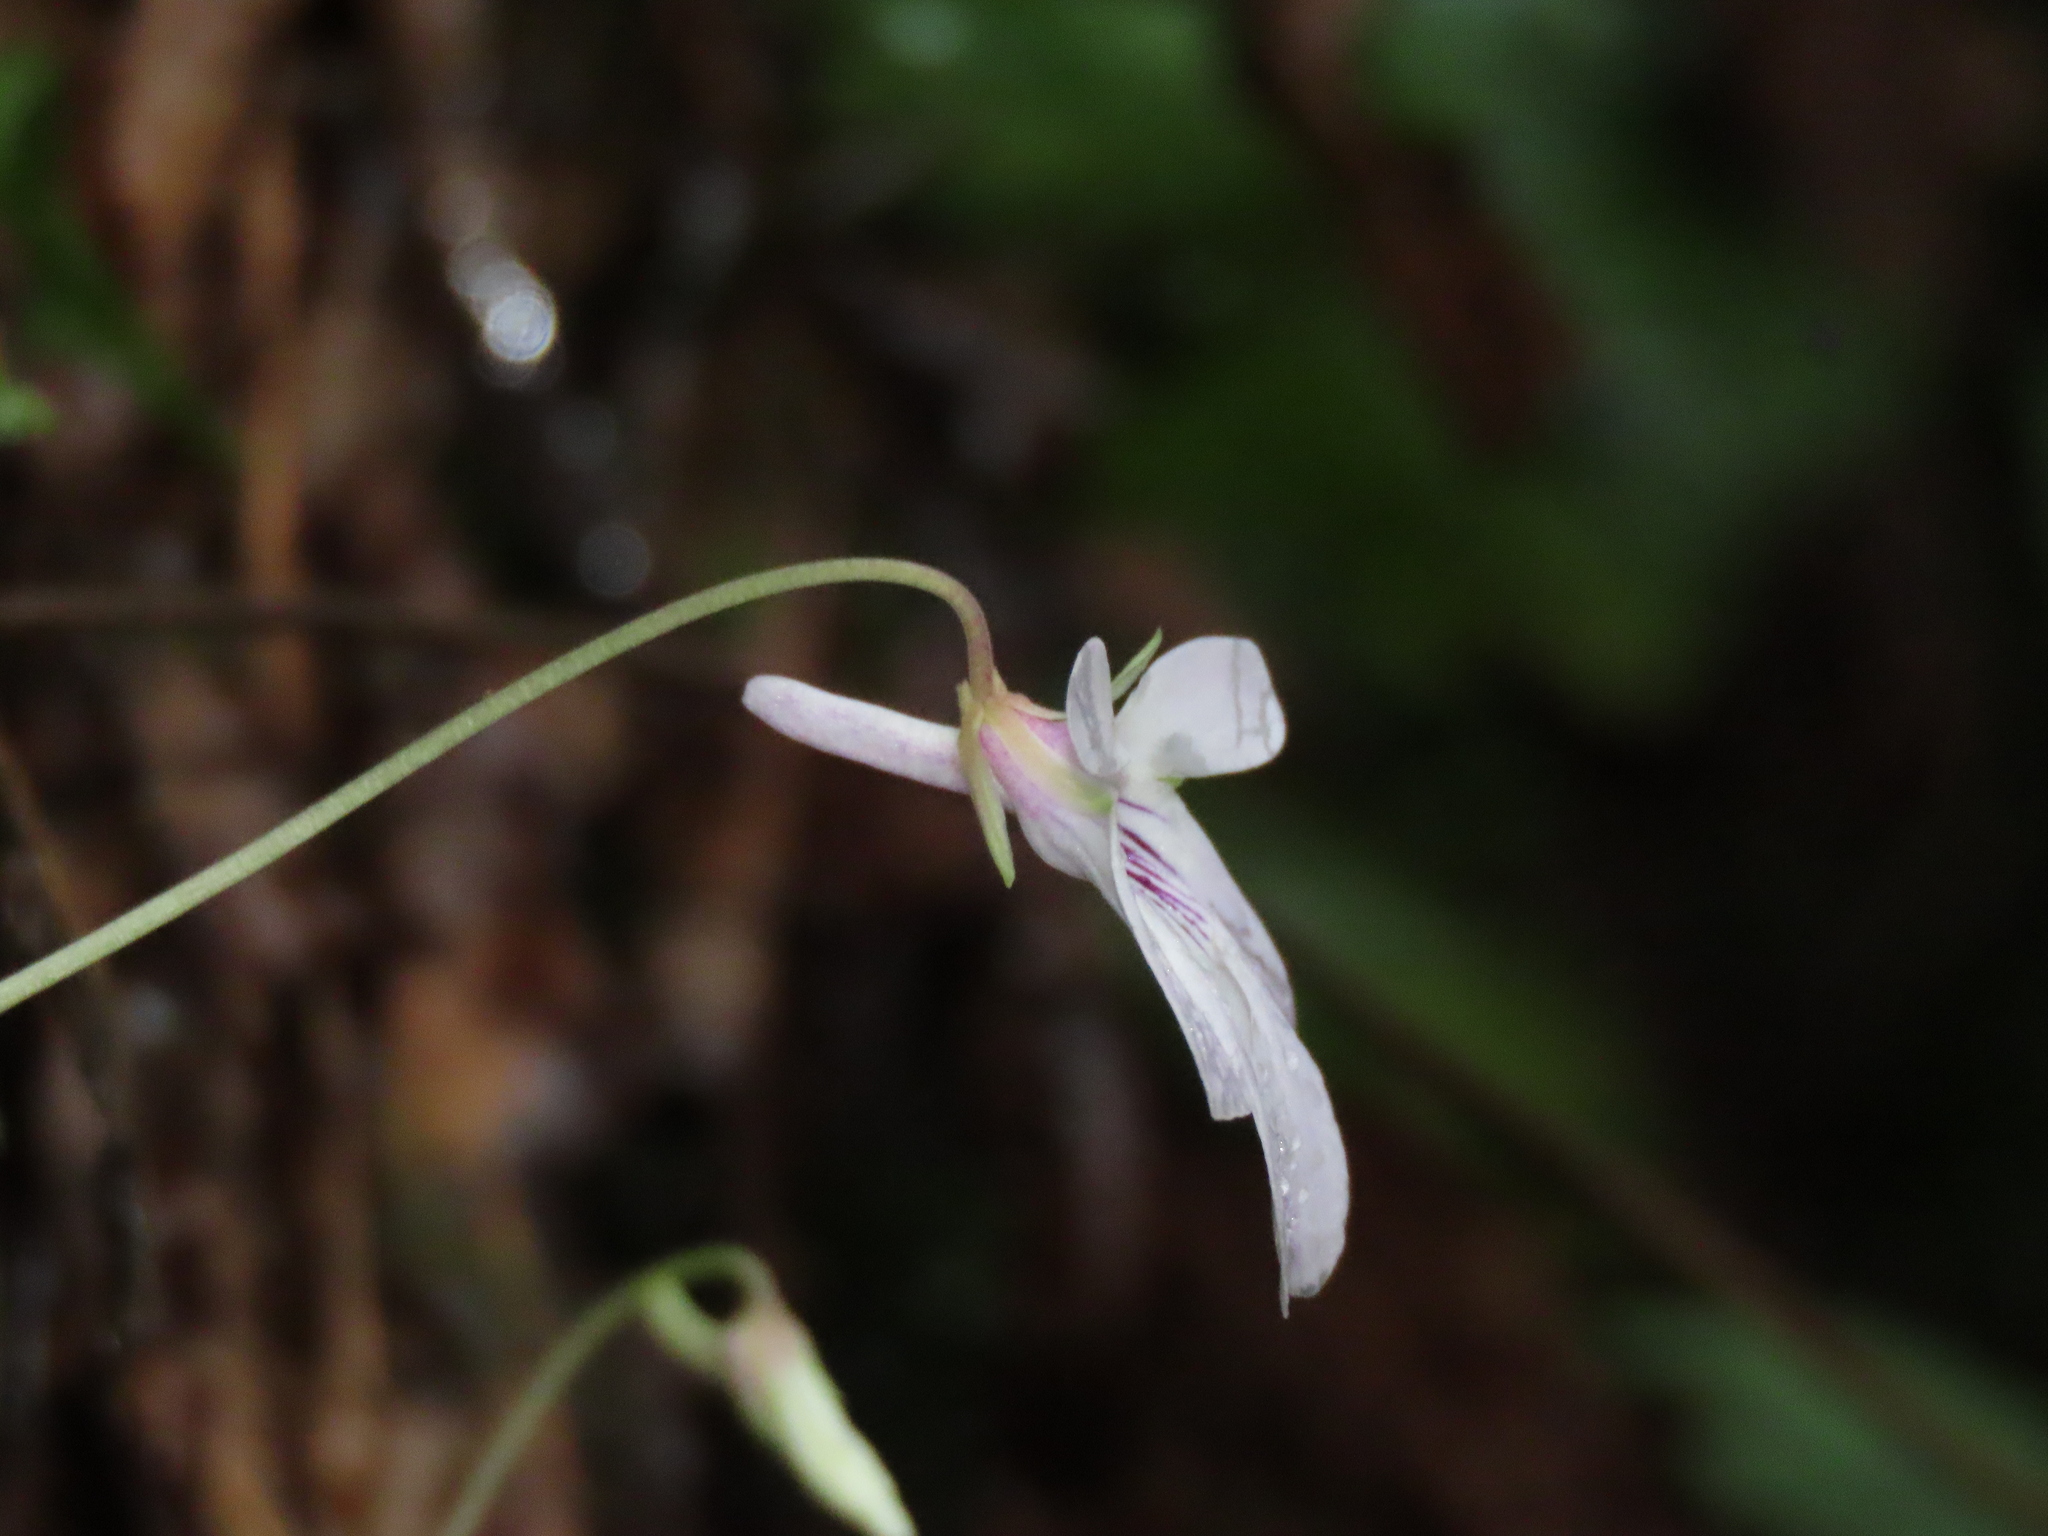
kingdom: Plantae
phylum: Tracheophyta
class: Magnoliopsida
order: Malpighiales
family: Violaceae
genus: Viola
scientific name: Viola formosana
